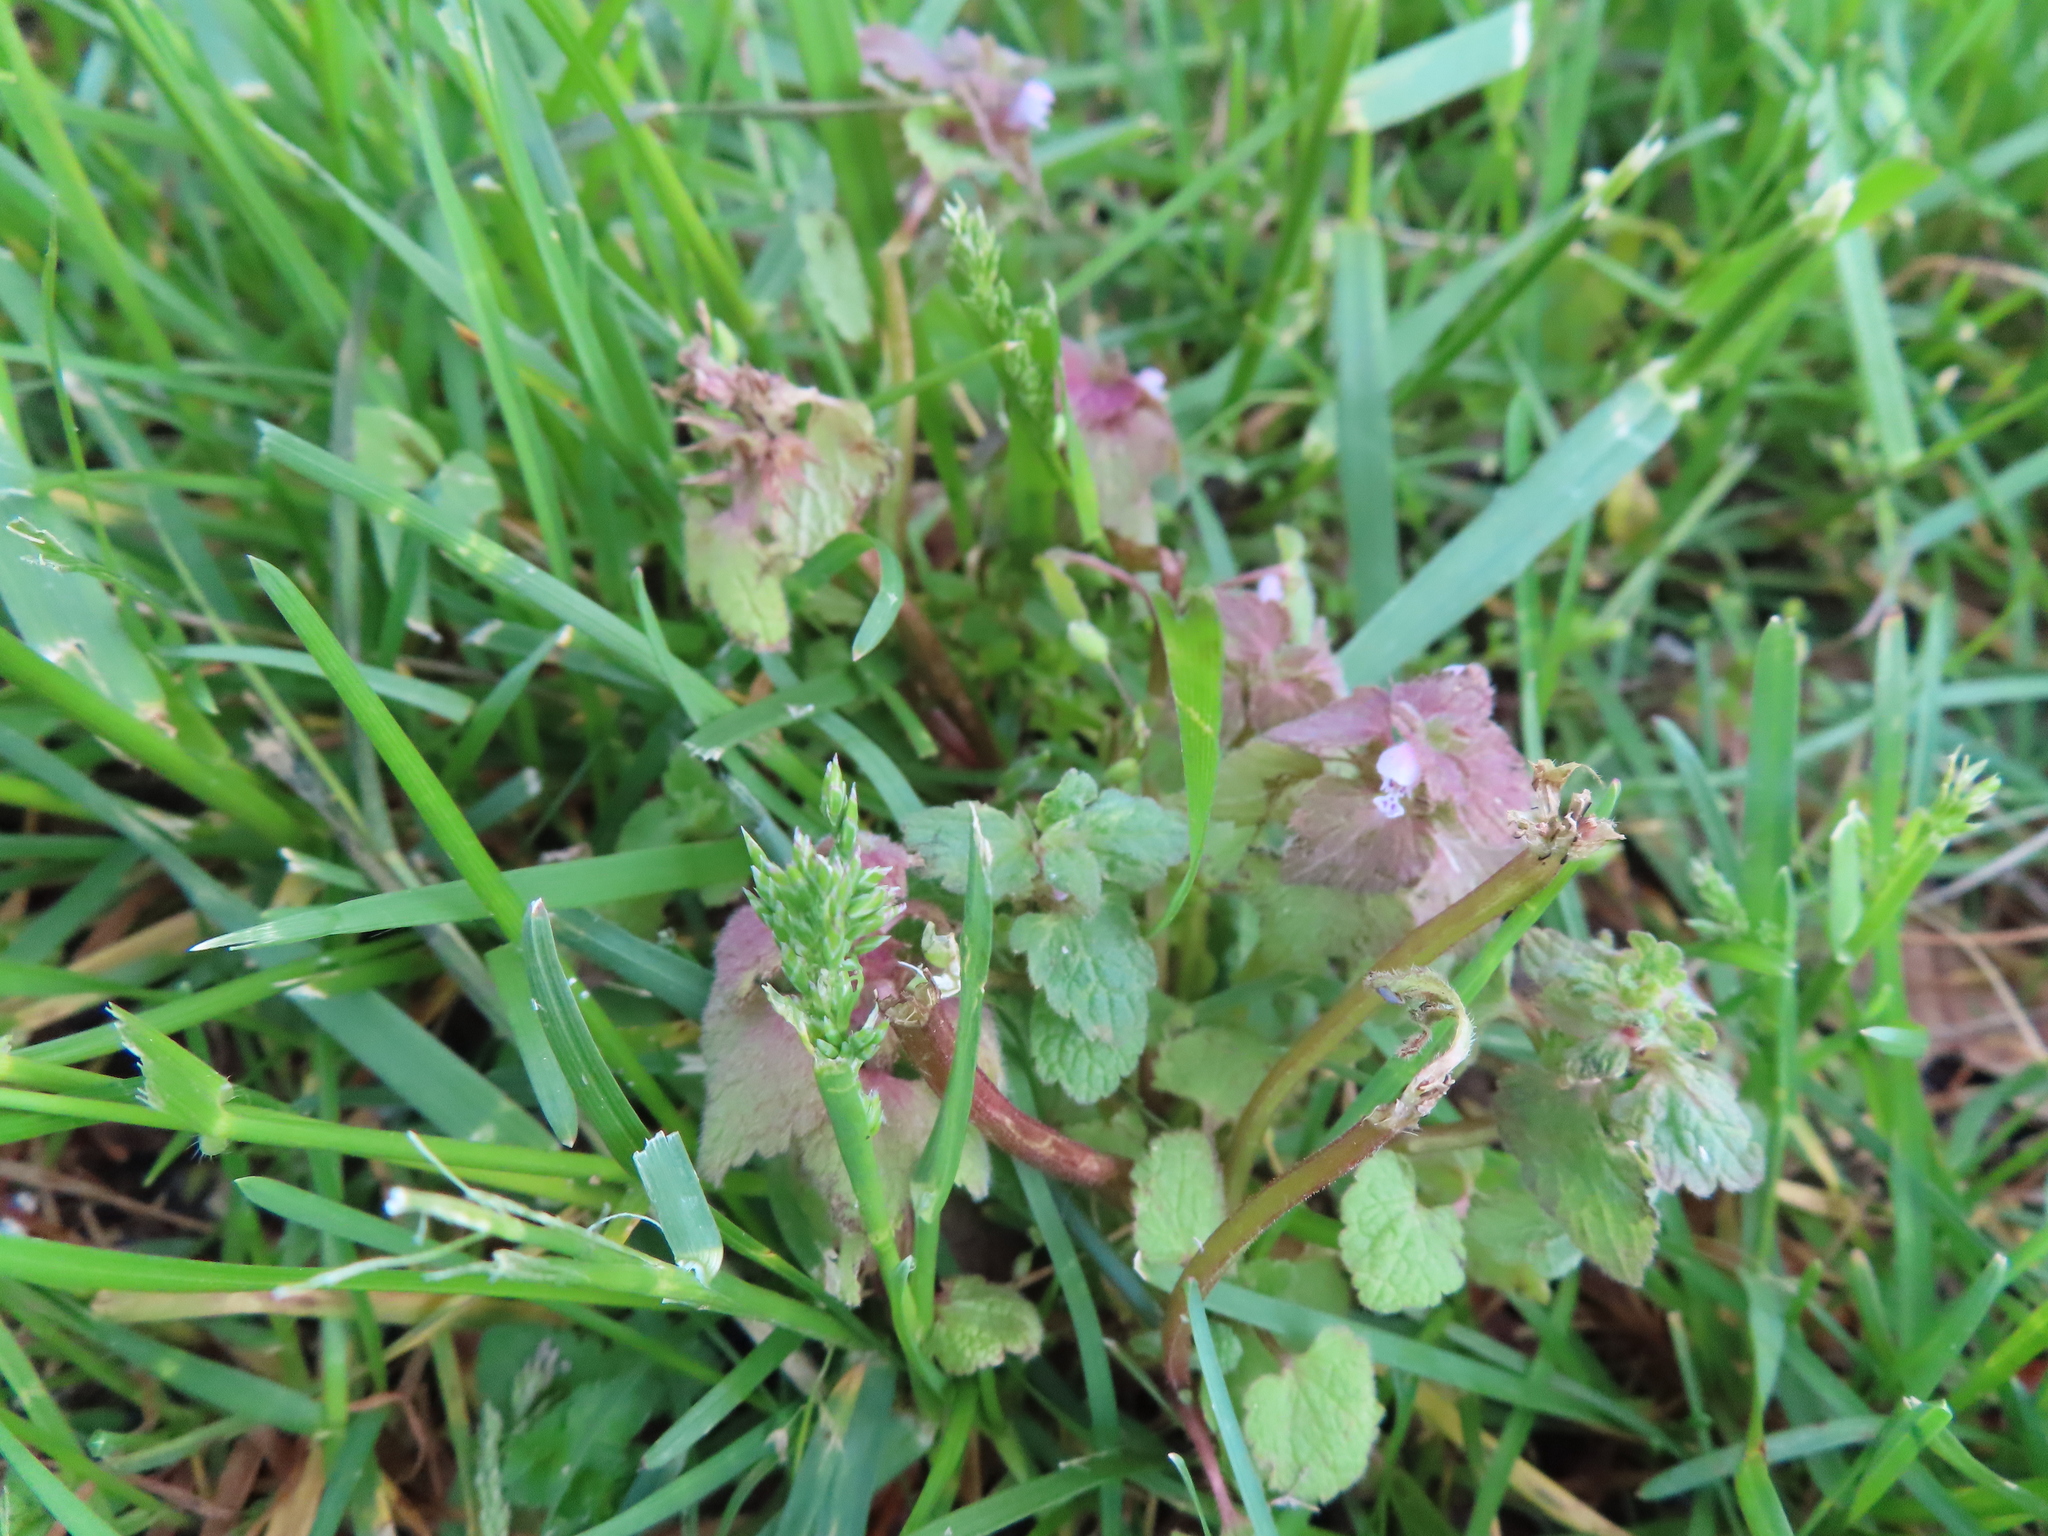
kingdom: Plantae
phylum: Tracheophyta
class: Magnoliopsida
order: Lamiales
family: Lamiaceae
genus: Lamium
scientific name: Lamium purpureum
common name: Red dead-nettle
